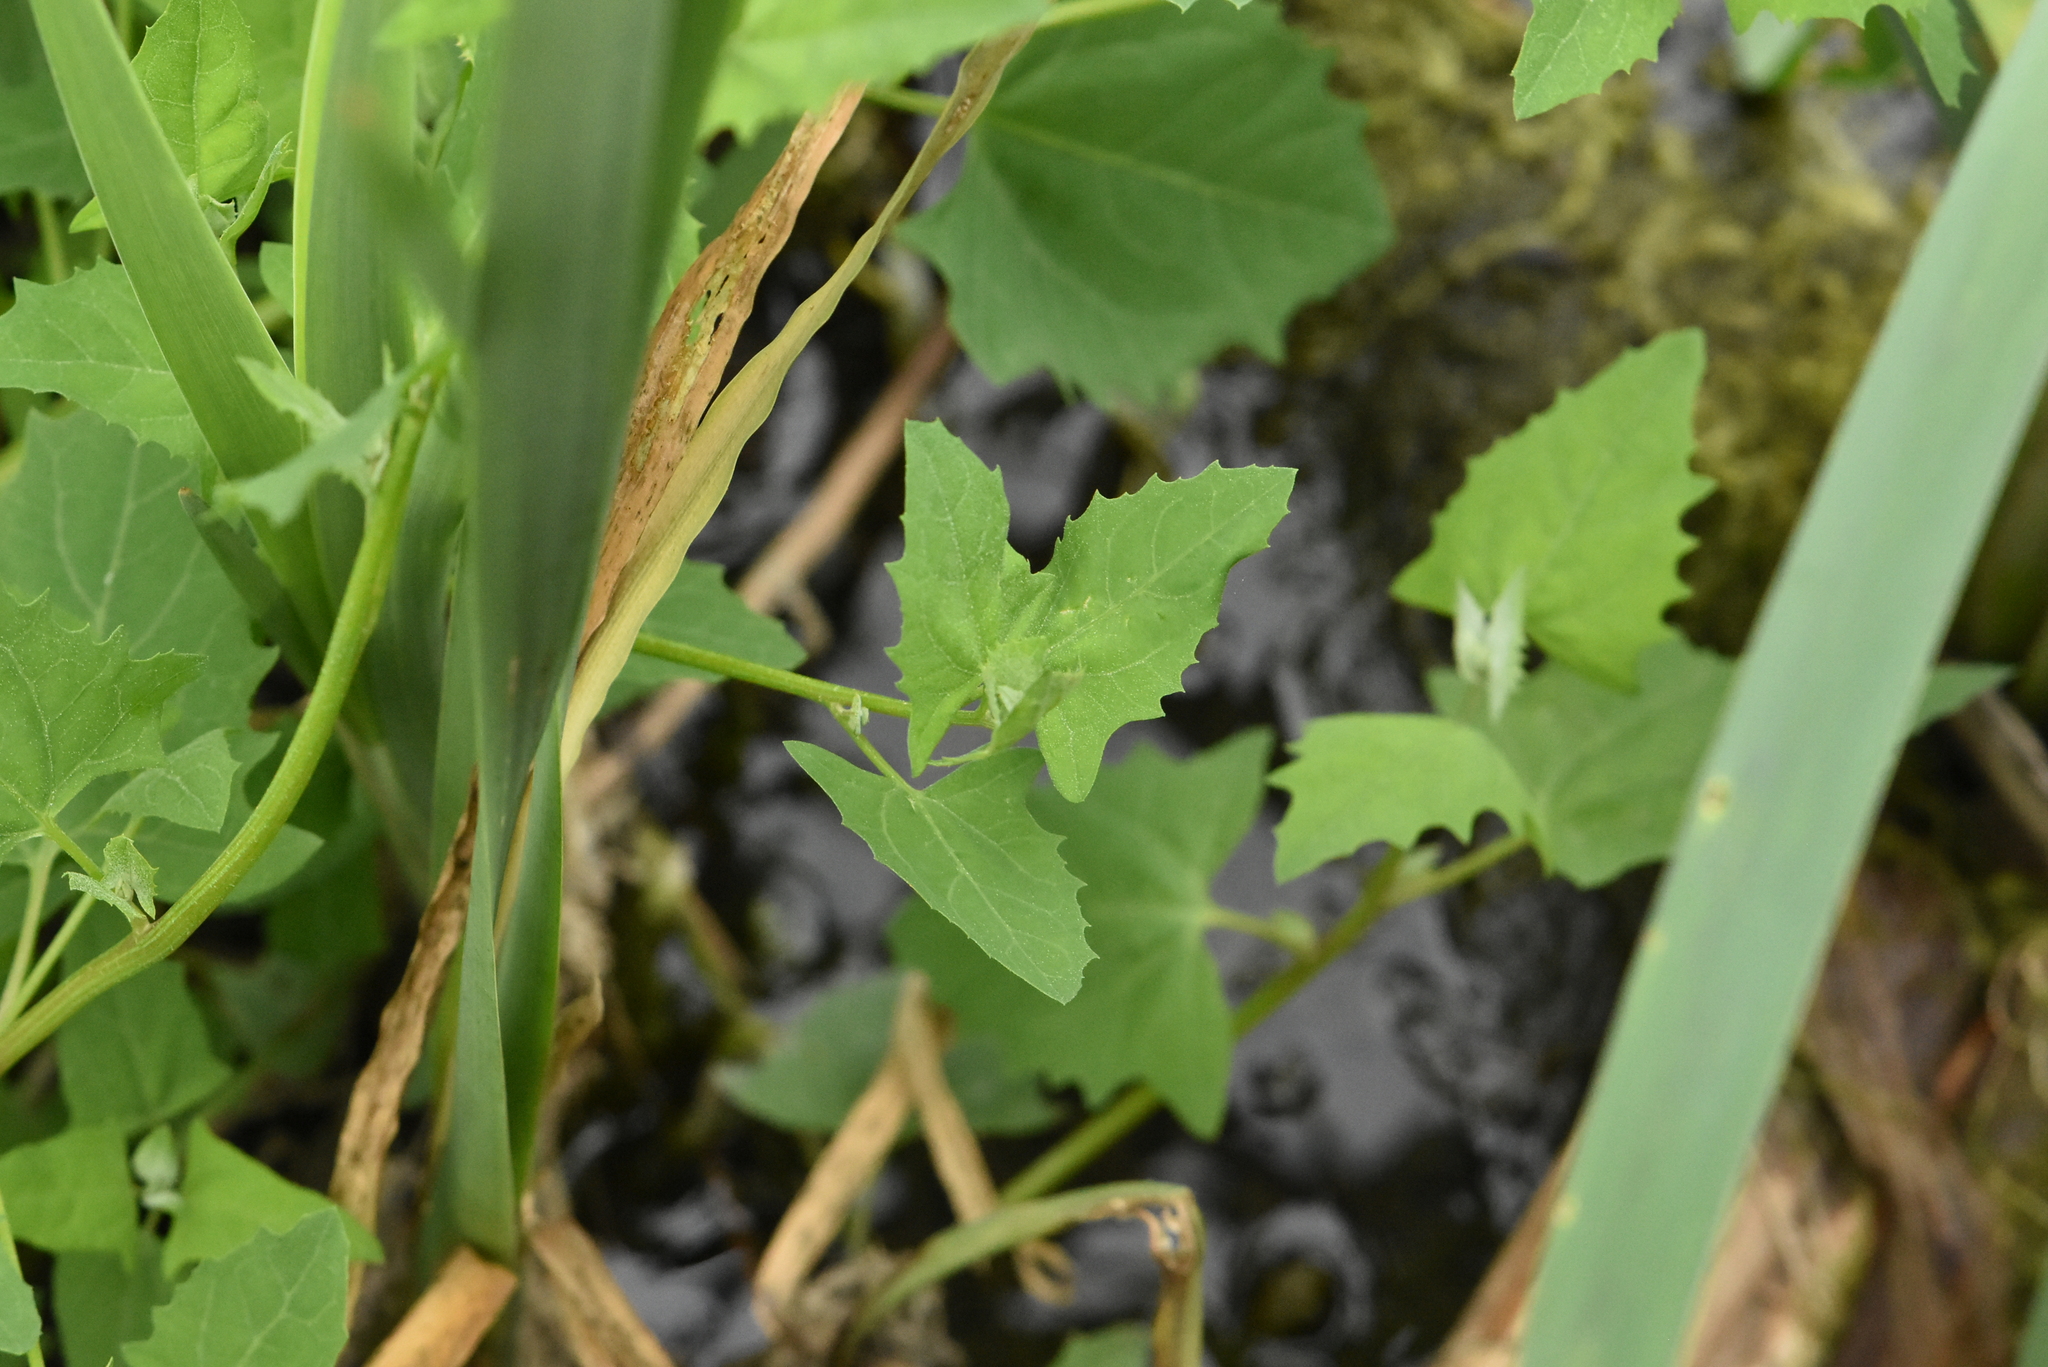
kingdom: Plantae
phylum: Tracheophyta
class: Magnoliopsida
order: Caryophyllales
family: Amaranthaceae
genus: Atriplex
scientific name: Atriplex sagittata
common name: Purple orache
